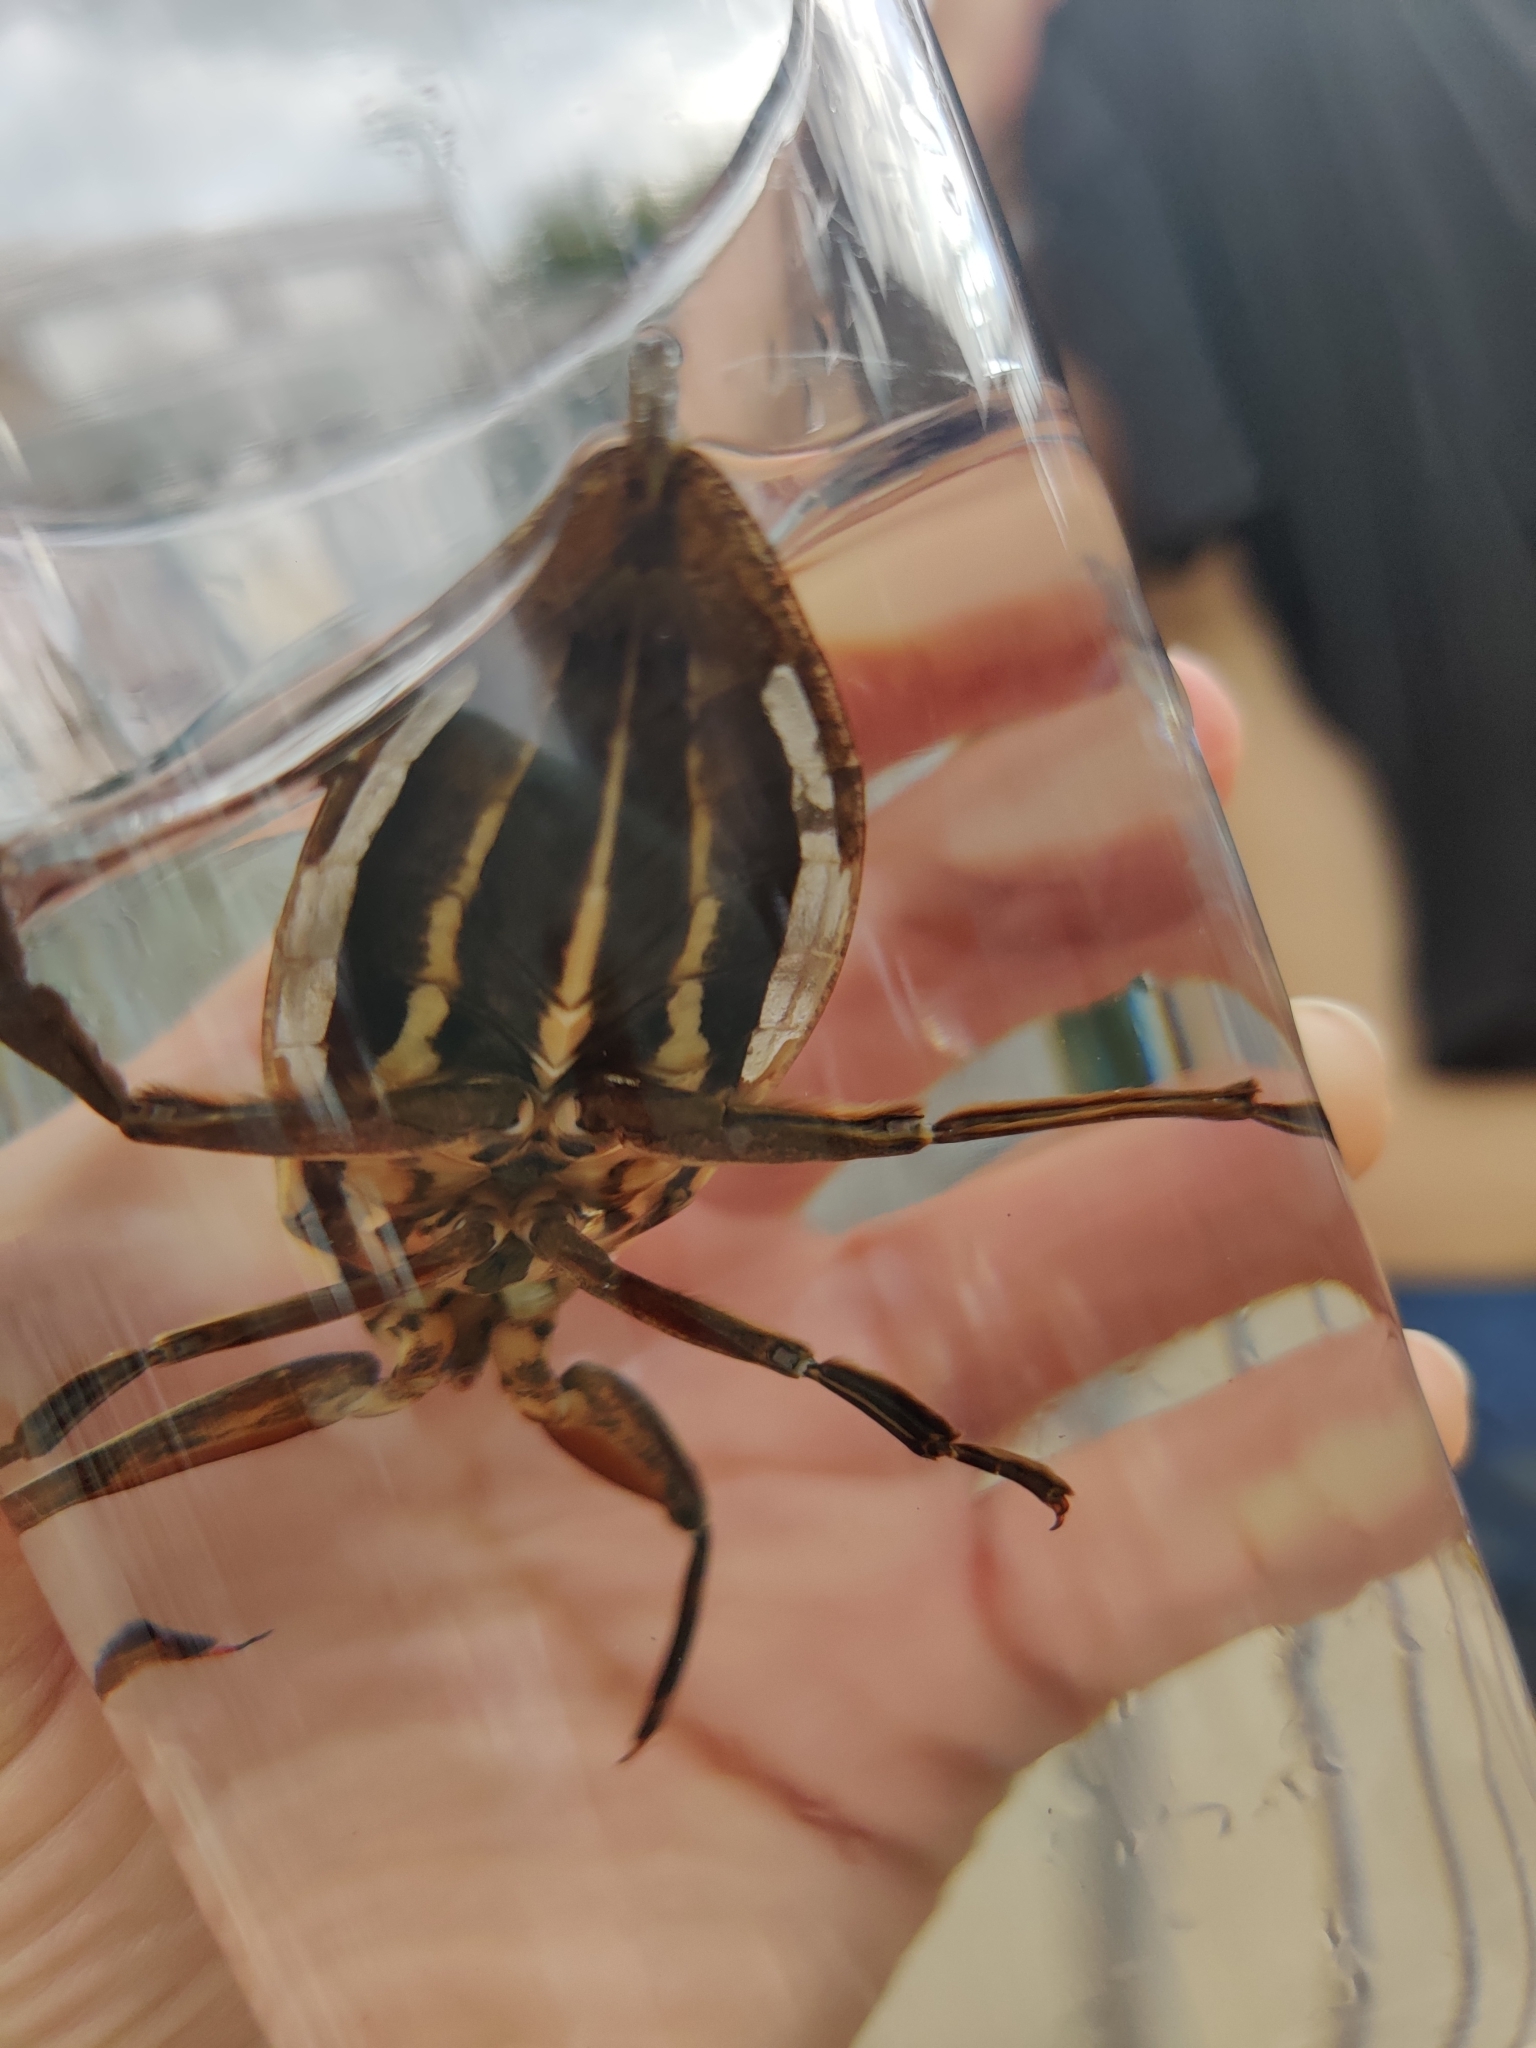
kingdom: Animalia
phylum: Arthropoda
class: Insecta
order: Hemiptera
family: Belostomatidae
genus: Benacus
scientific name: Benacus griseus
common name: Eastern toe-biter
